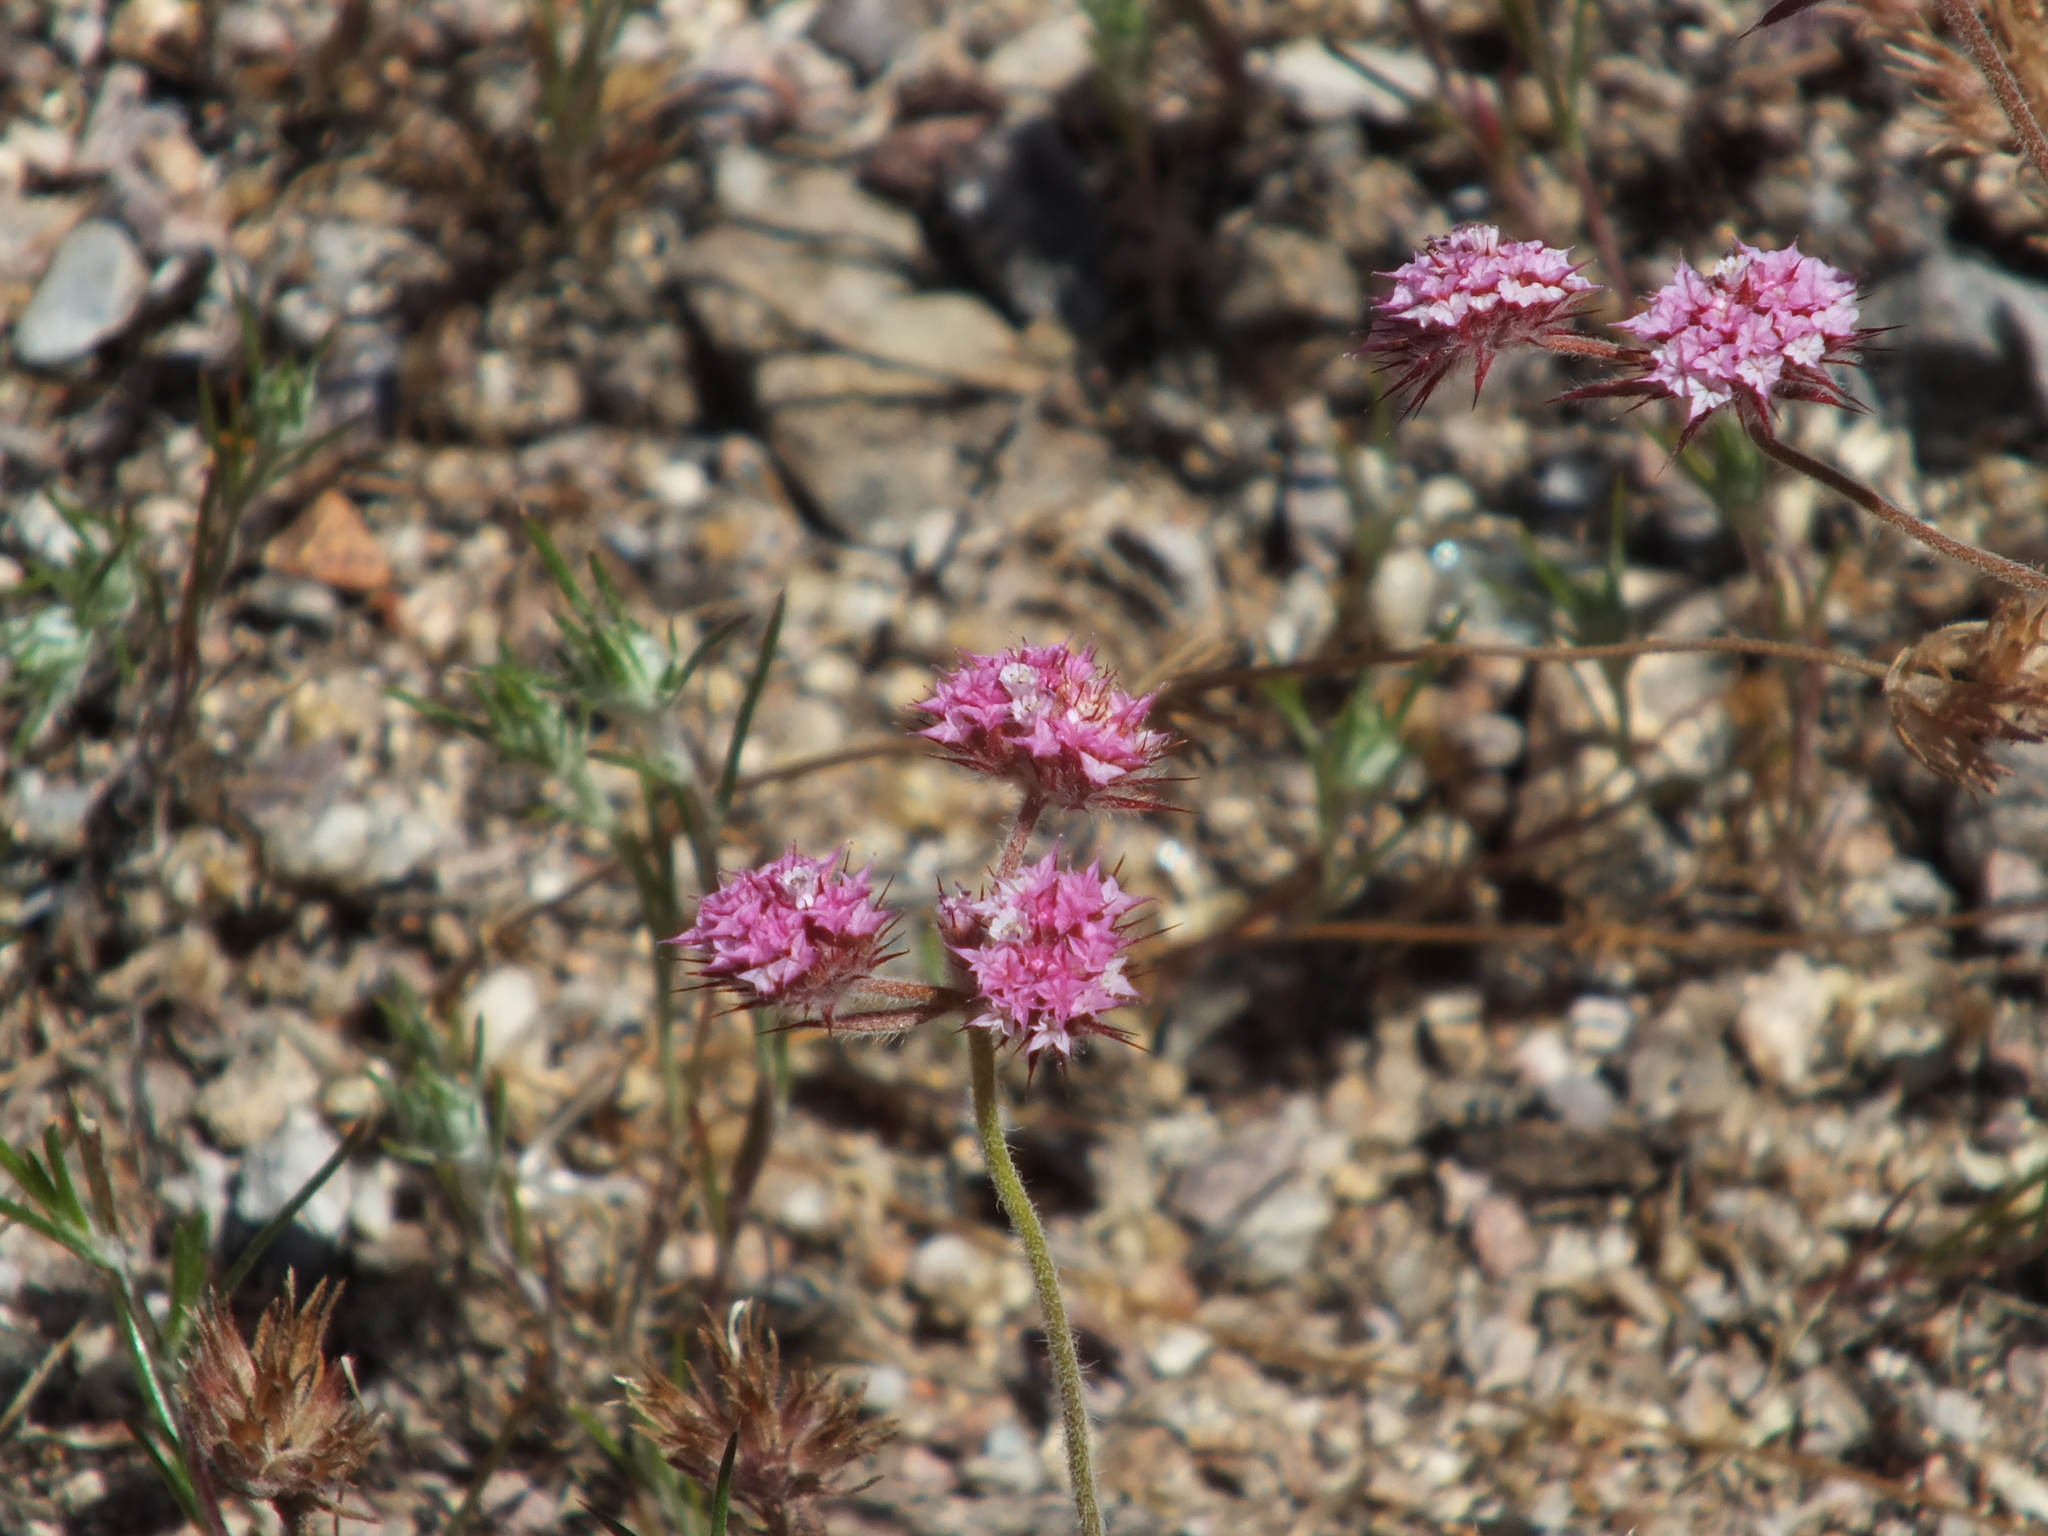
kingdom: Plantae
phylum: Tracheophyta
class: Magnoliopsida
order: Caryophyllales
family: Polygonaceae
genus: Chorizanthe
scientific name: Chorizanthe douglasii
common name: Douglas's spineflower
